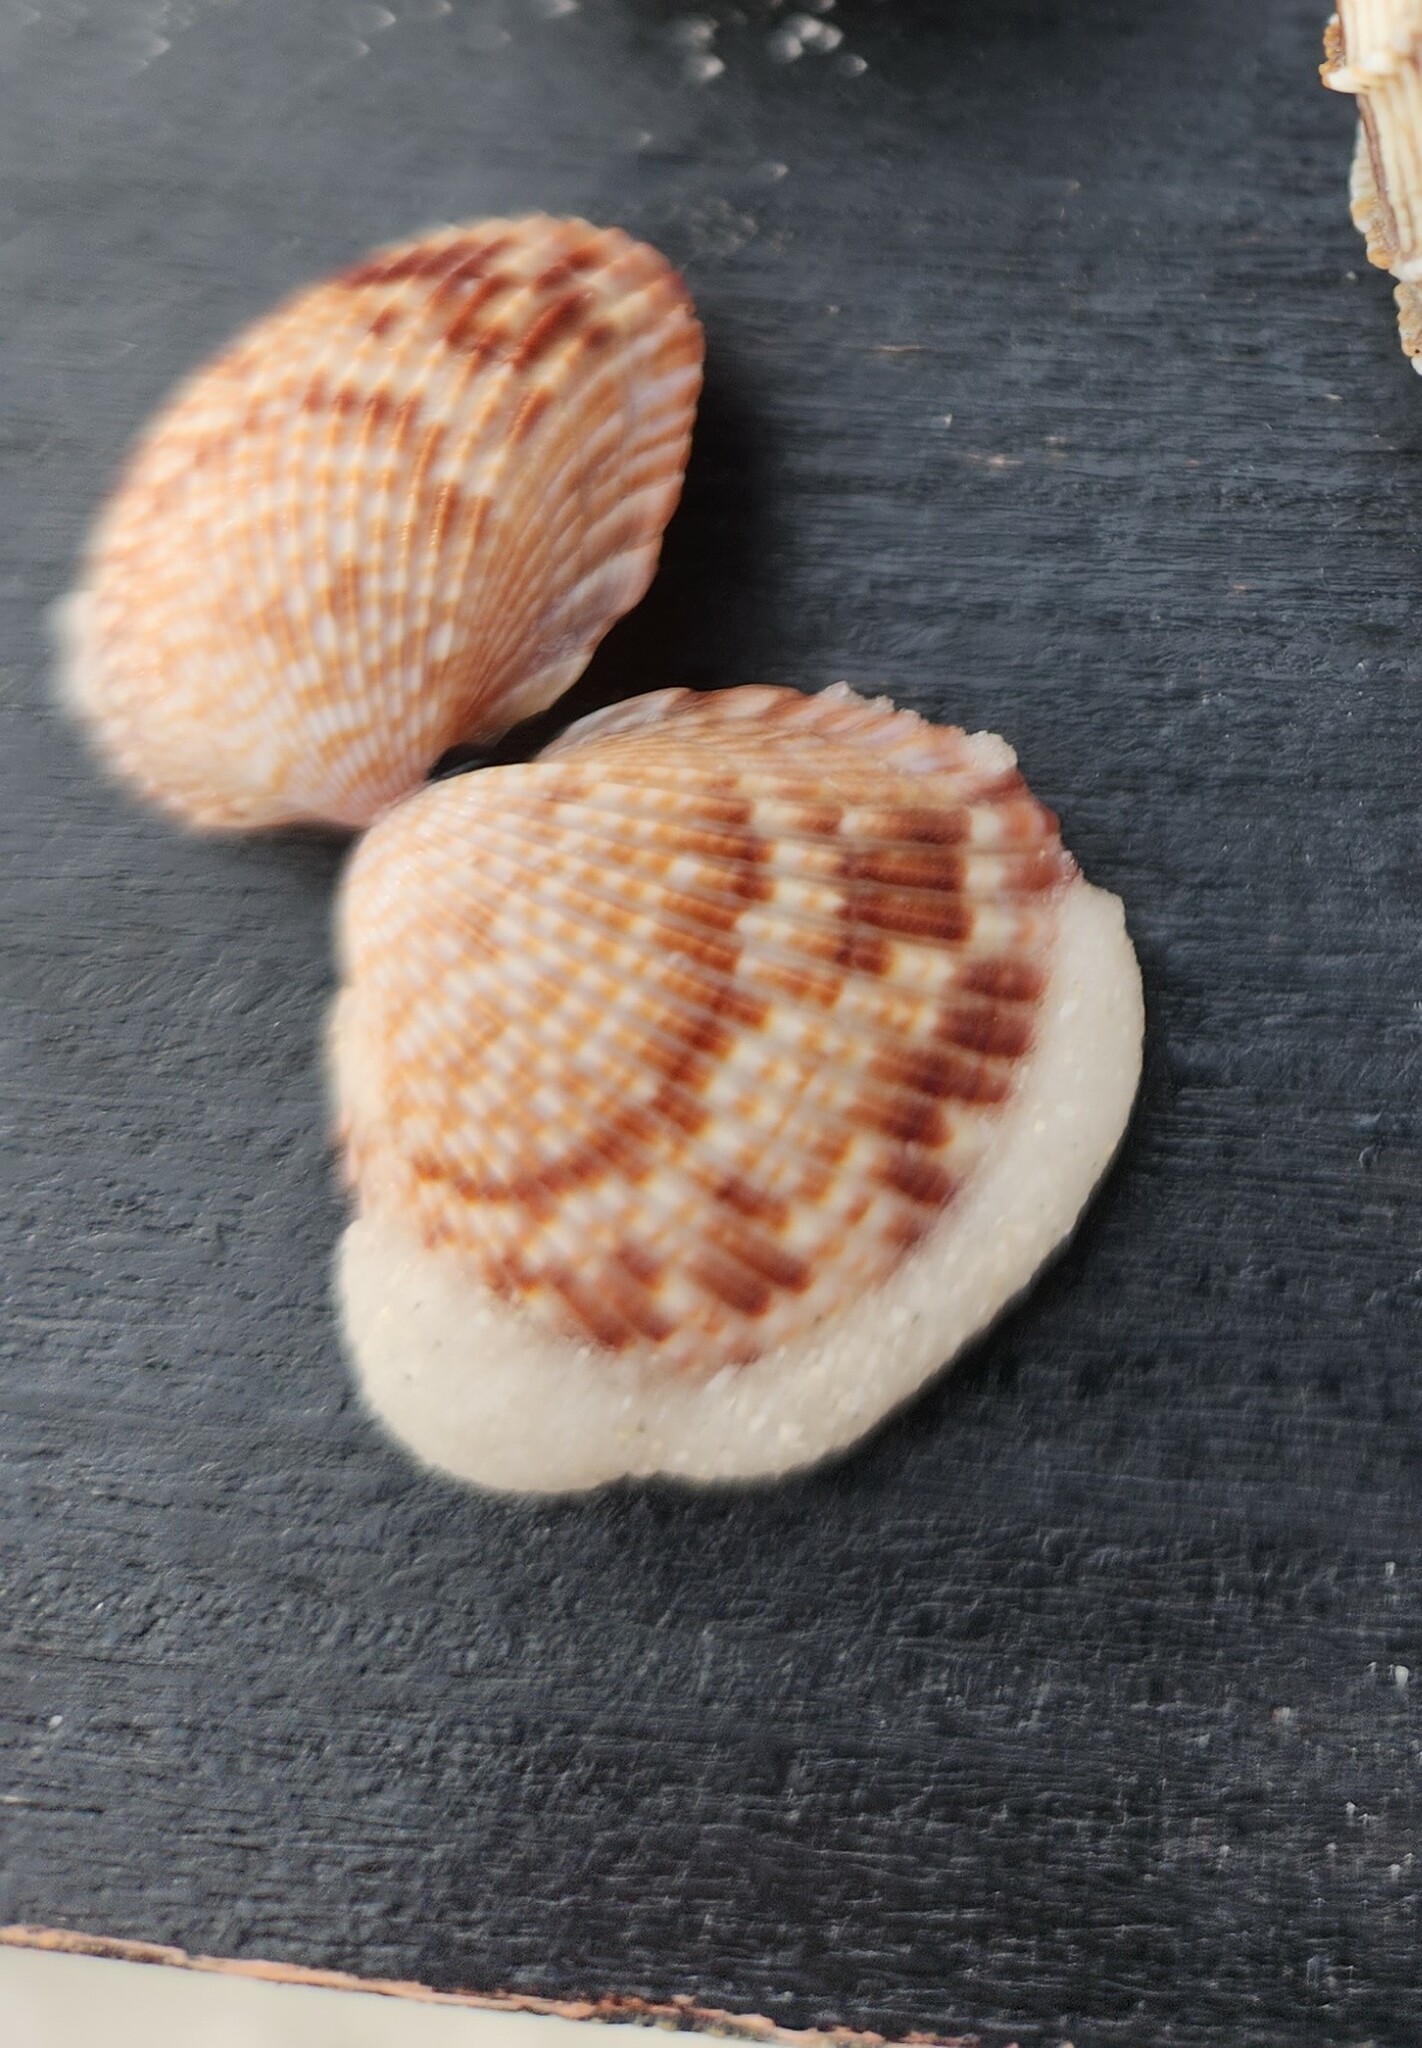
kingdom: Animalia
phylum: Mollusca
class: Bivalvia
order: Cardiida
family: Cardiidae
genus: Dinocardium
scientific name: Dinocardium robustum
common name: Atlantic giant cockle
